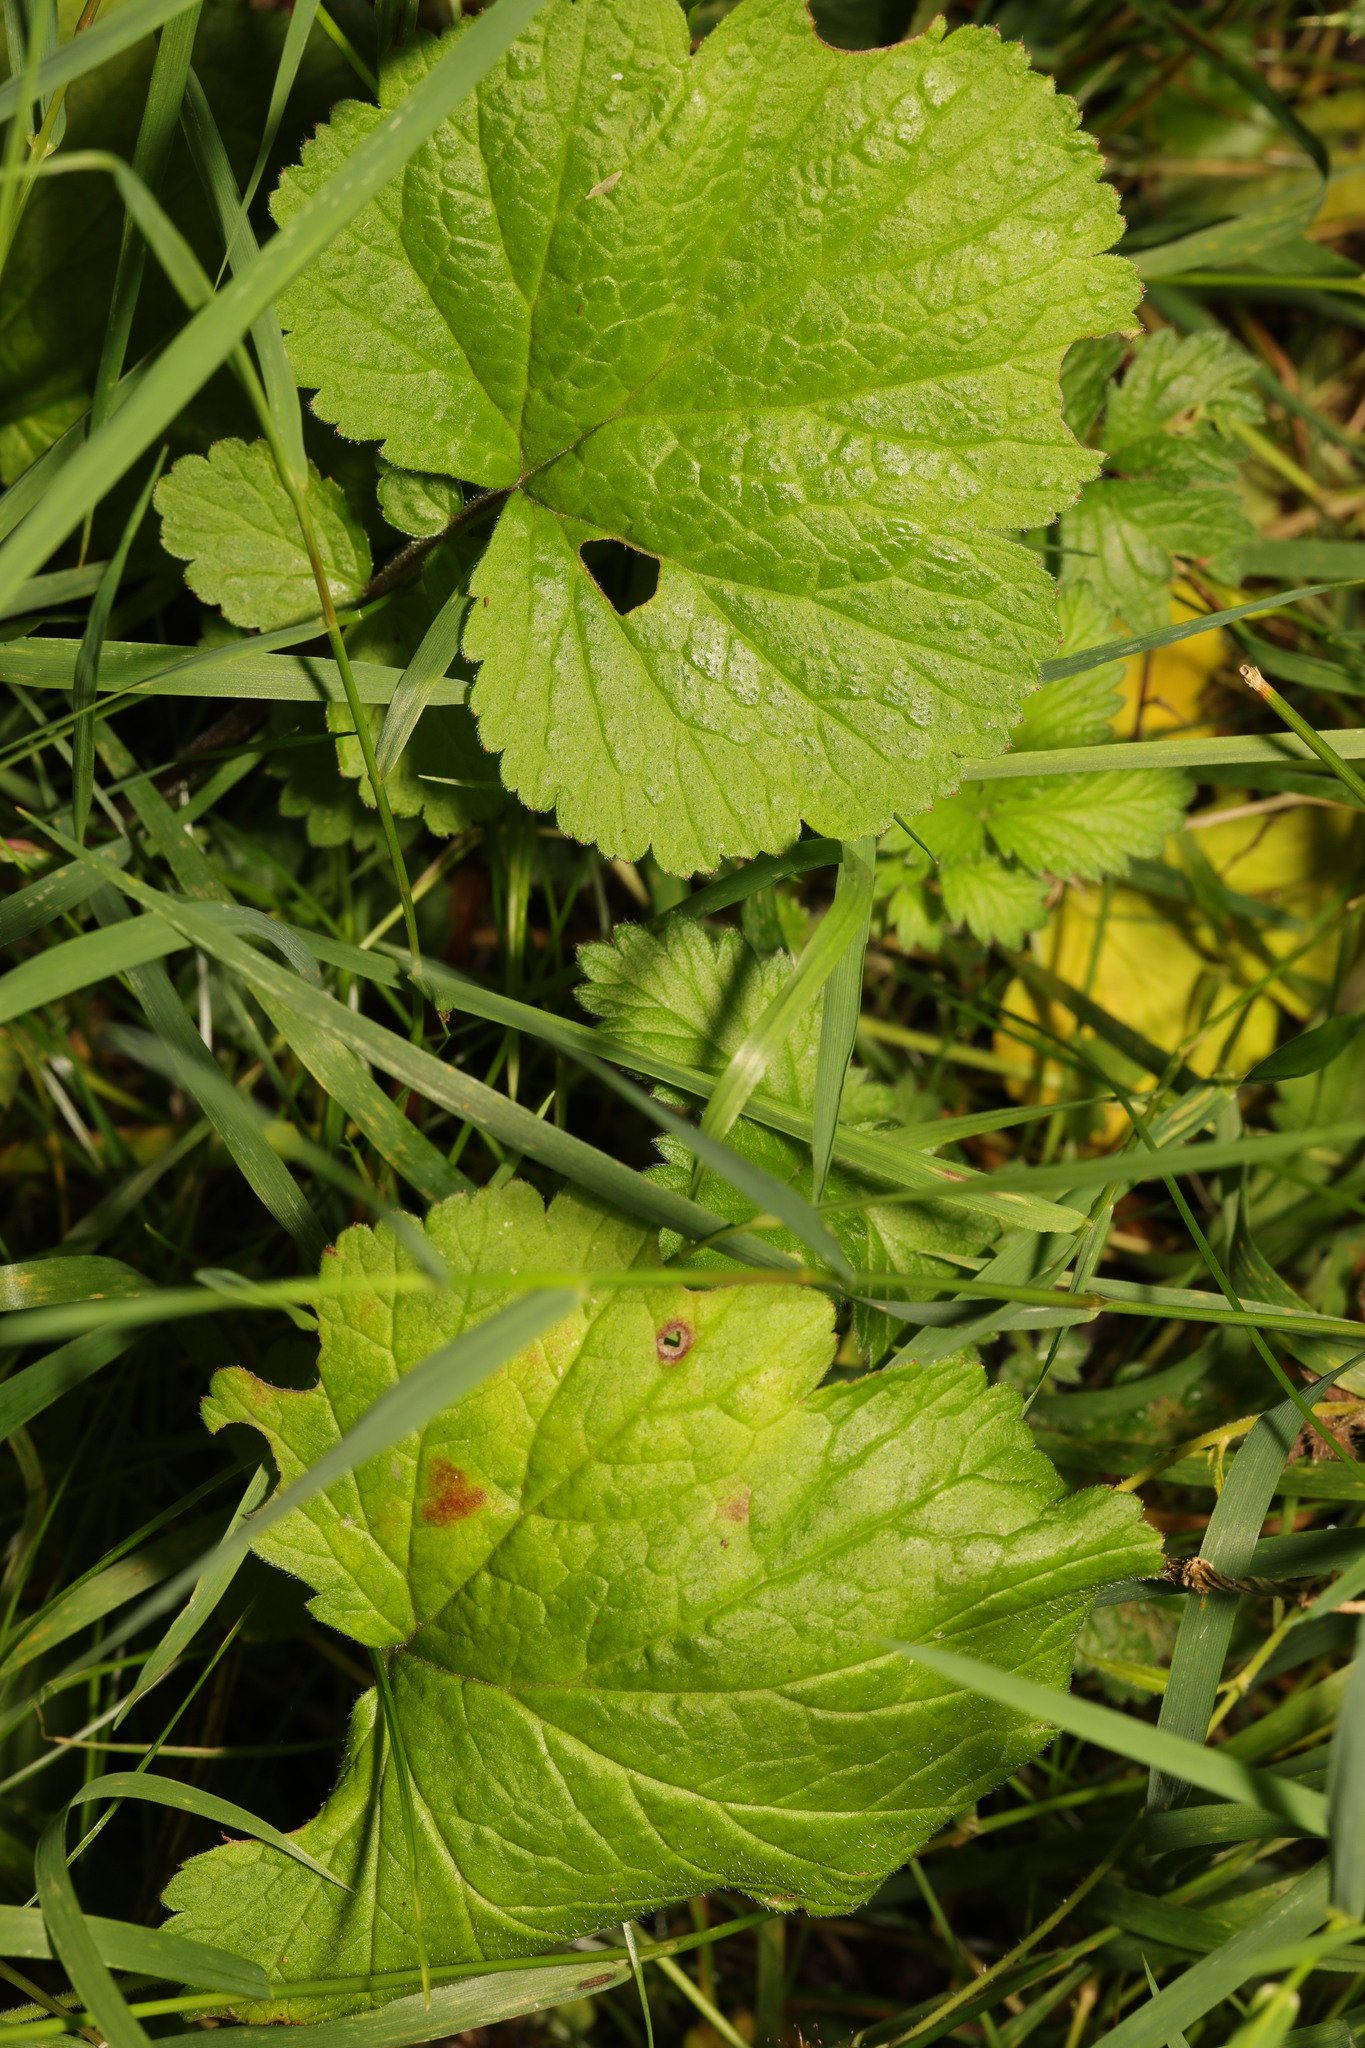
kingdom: Plantae
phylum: Tracheophyta
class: Magnoliopsida
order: Rosales
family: Rosaceae
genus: Geum
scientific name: Geum urbanum
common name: Wood avens
